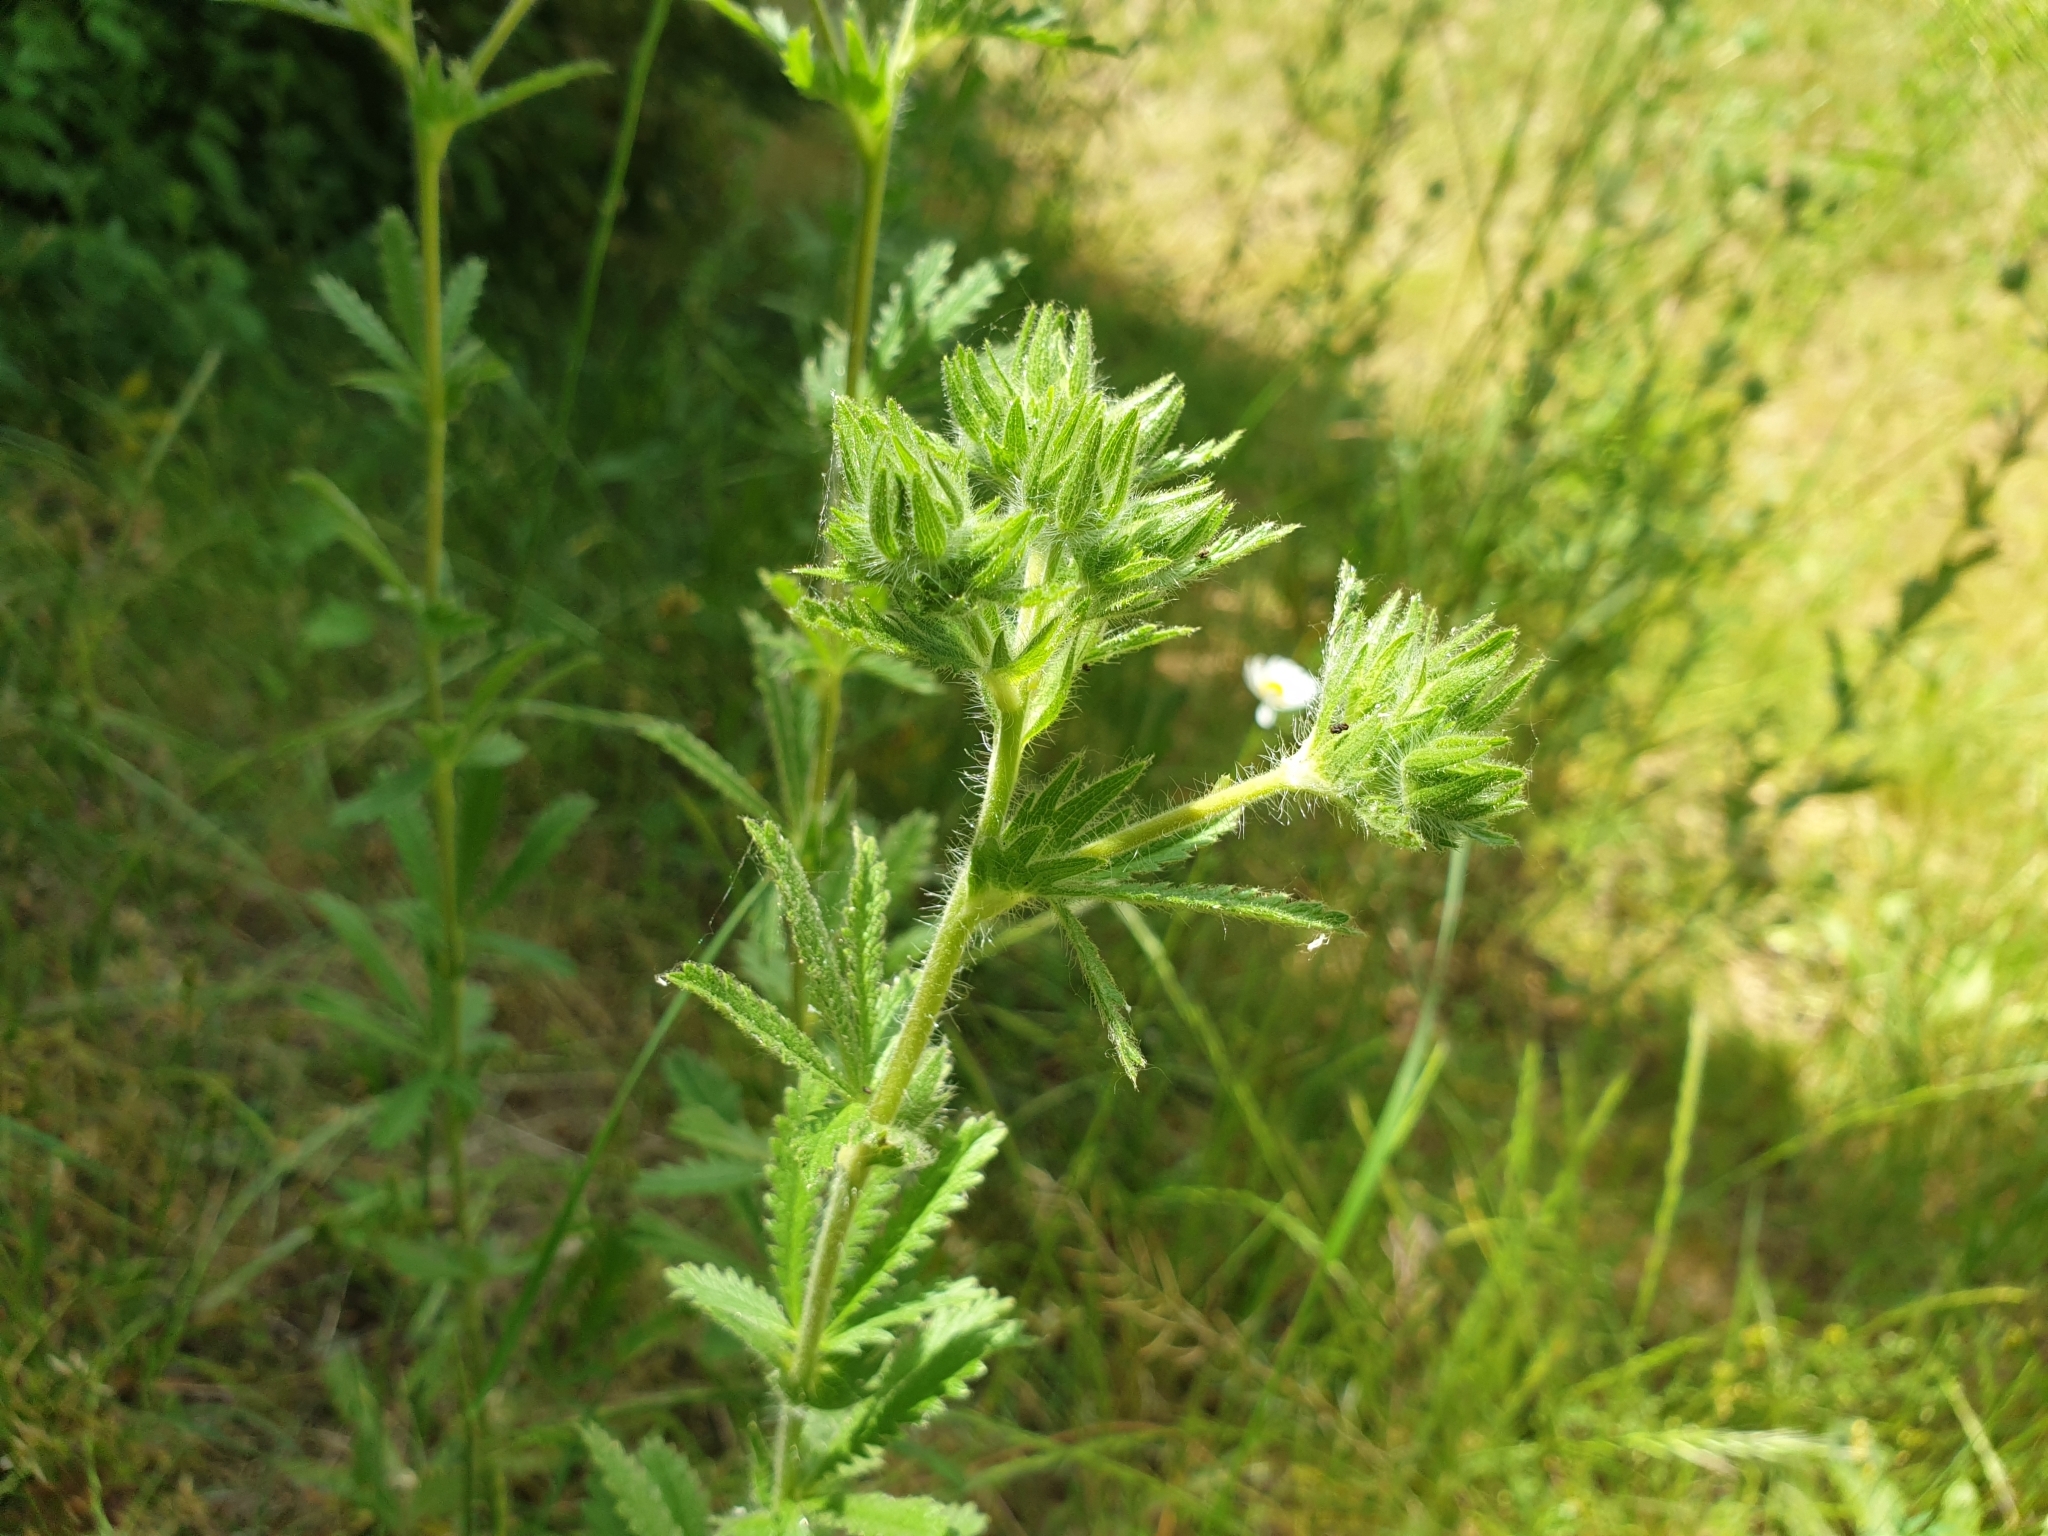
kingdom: Plantae
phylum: Tracheophyta
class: Magnoliopsida
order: Rosales
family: Rosaceae
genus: Potentilla
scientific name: Potentilla recta
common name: Sulphur cinquefoil
